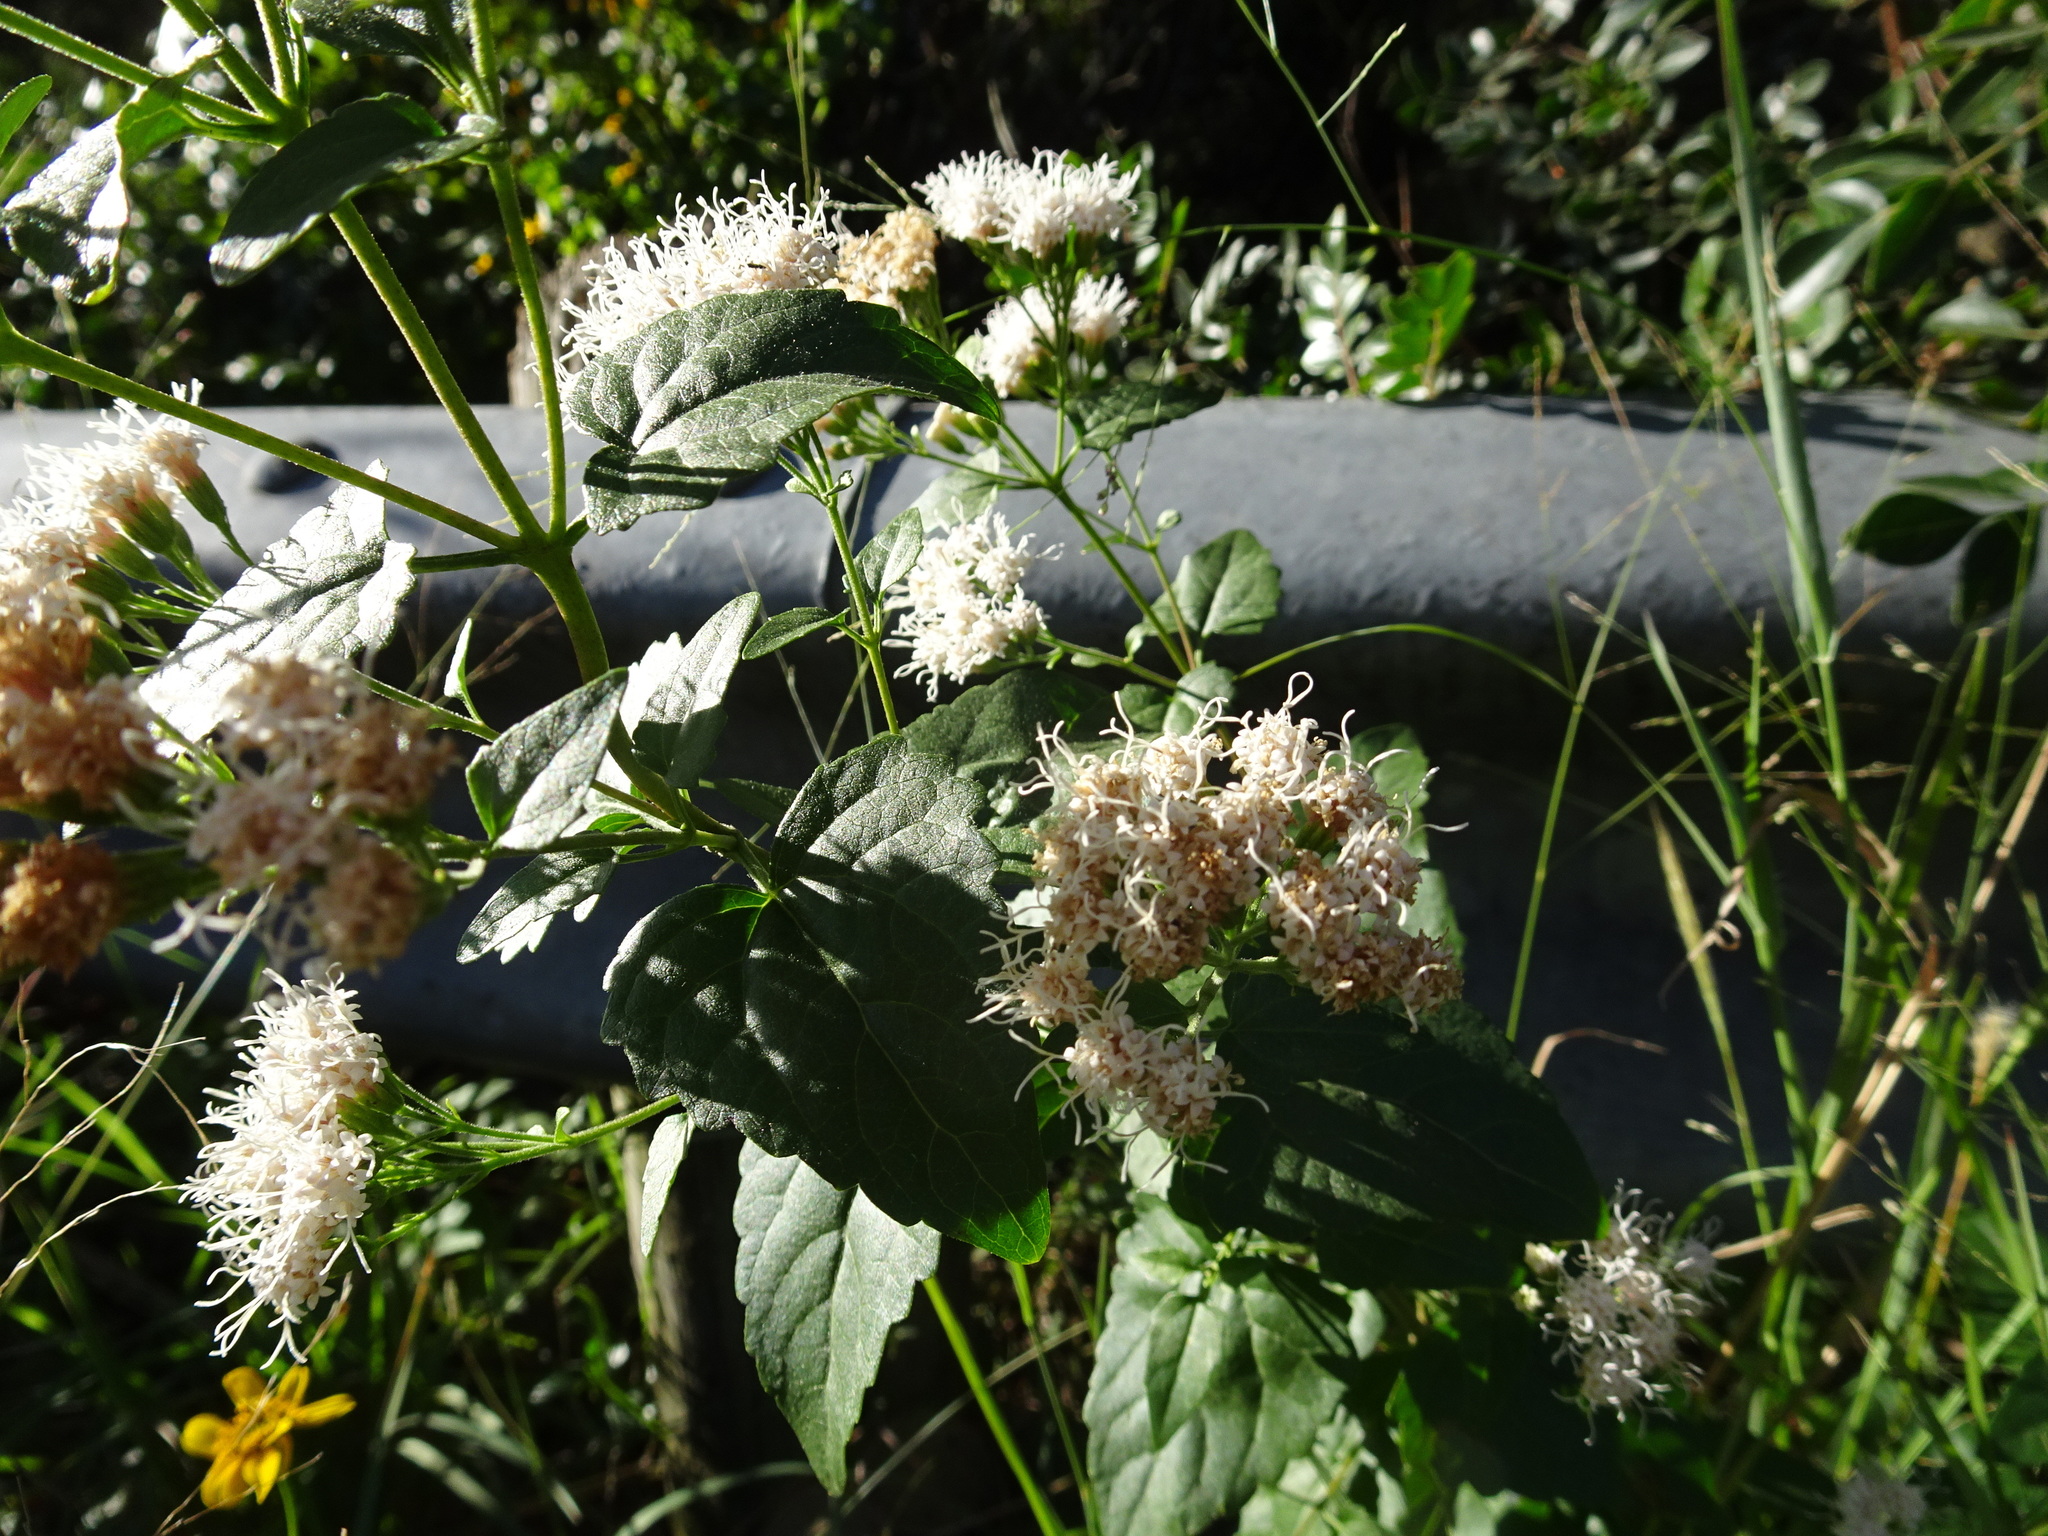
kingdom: Plantae
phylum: Tracheophyta
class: Magnoliopsida
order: Asterales
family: Asteraceae
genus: Ageratina
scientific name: Ageratina havanensis
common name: Havana snakeroot
